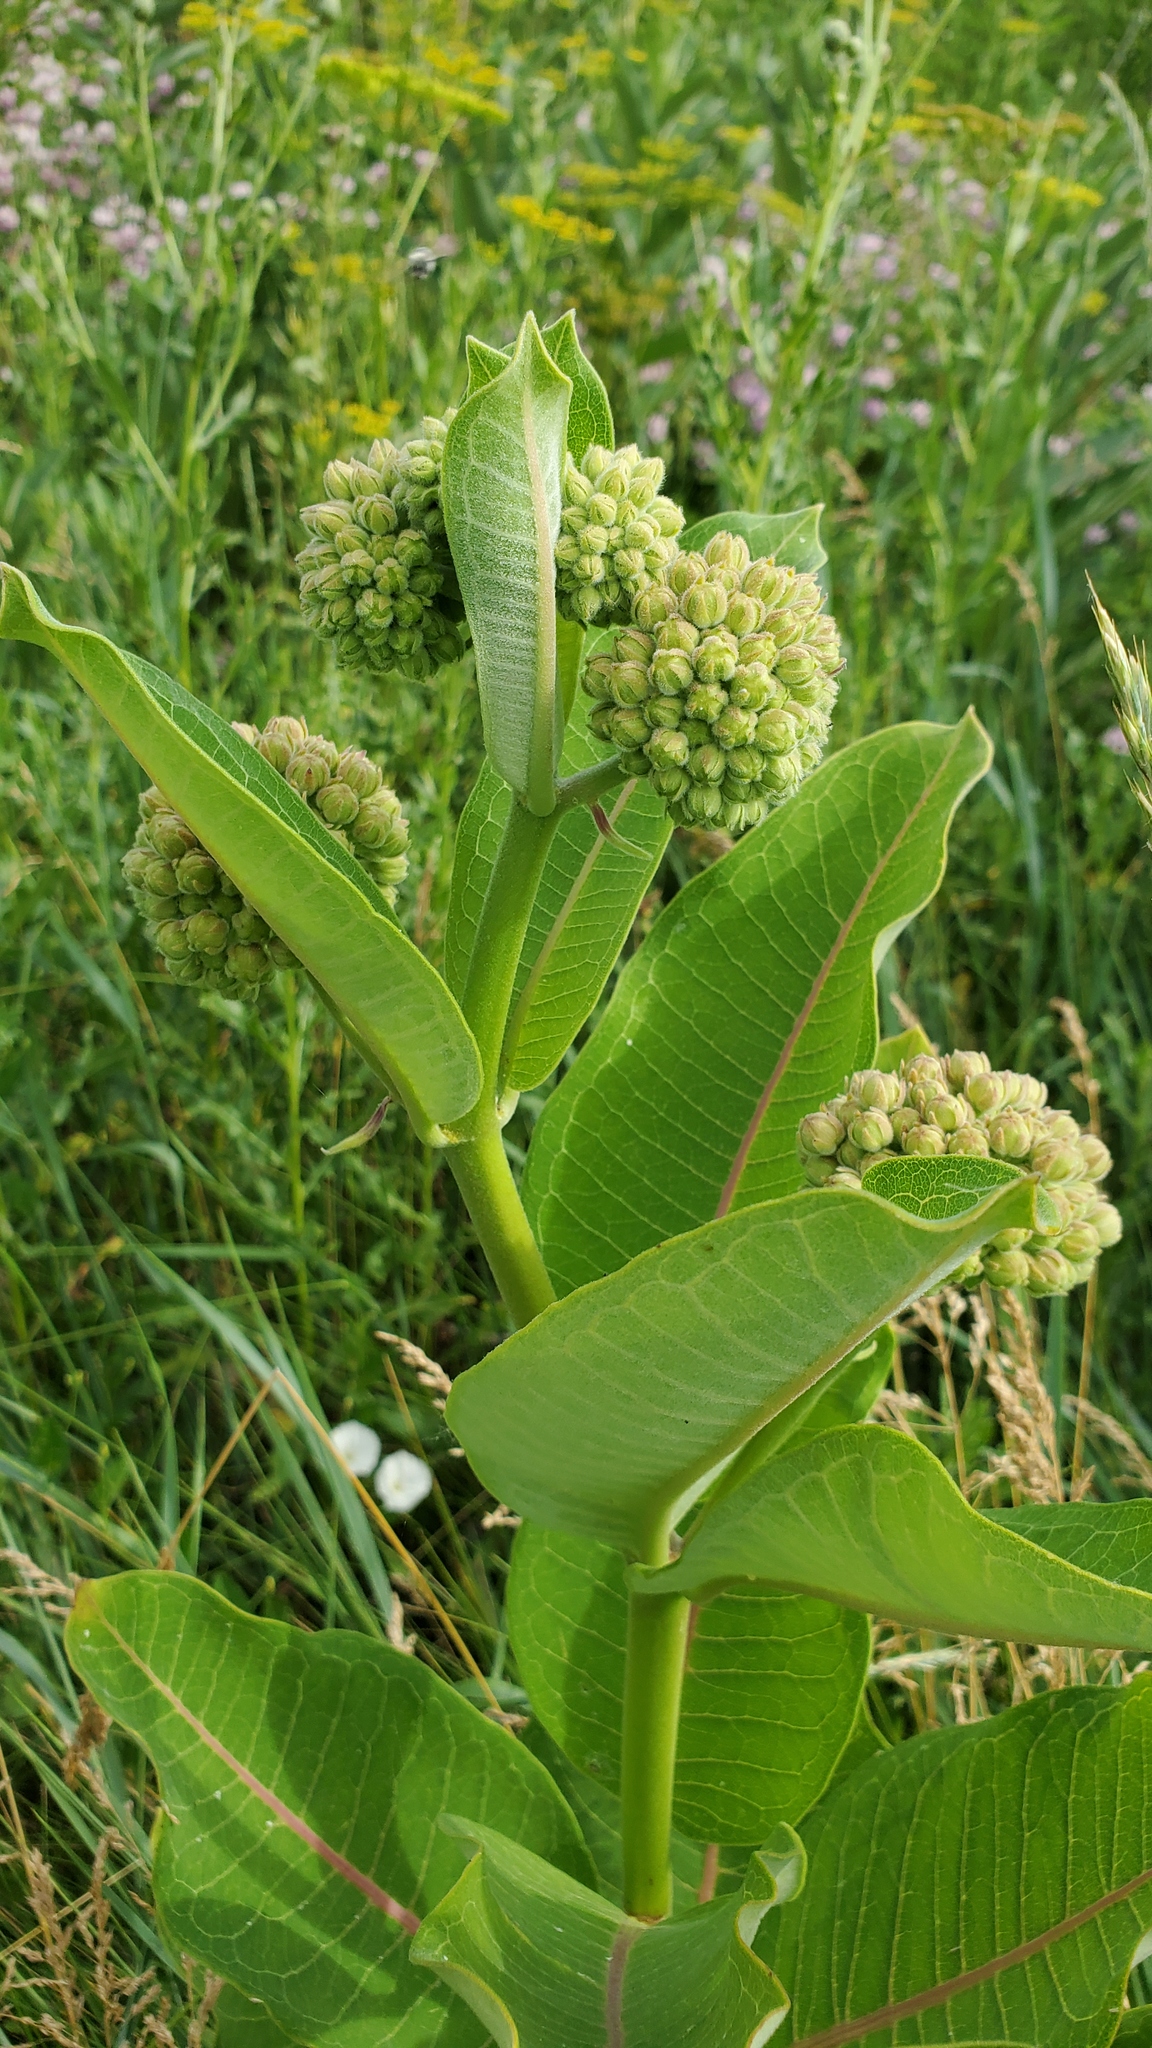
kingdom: Plantae
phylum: Tracheophyta
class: Magnoliopsida
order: Gentianales
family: Apocynaceae
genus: Asclepias
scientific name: Asclepias syriaca
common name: Common milkweed
